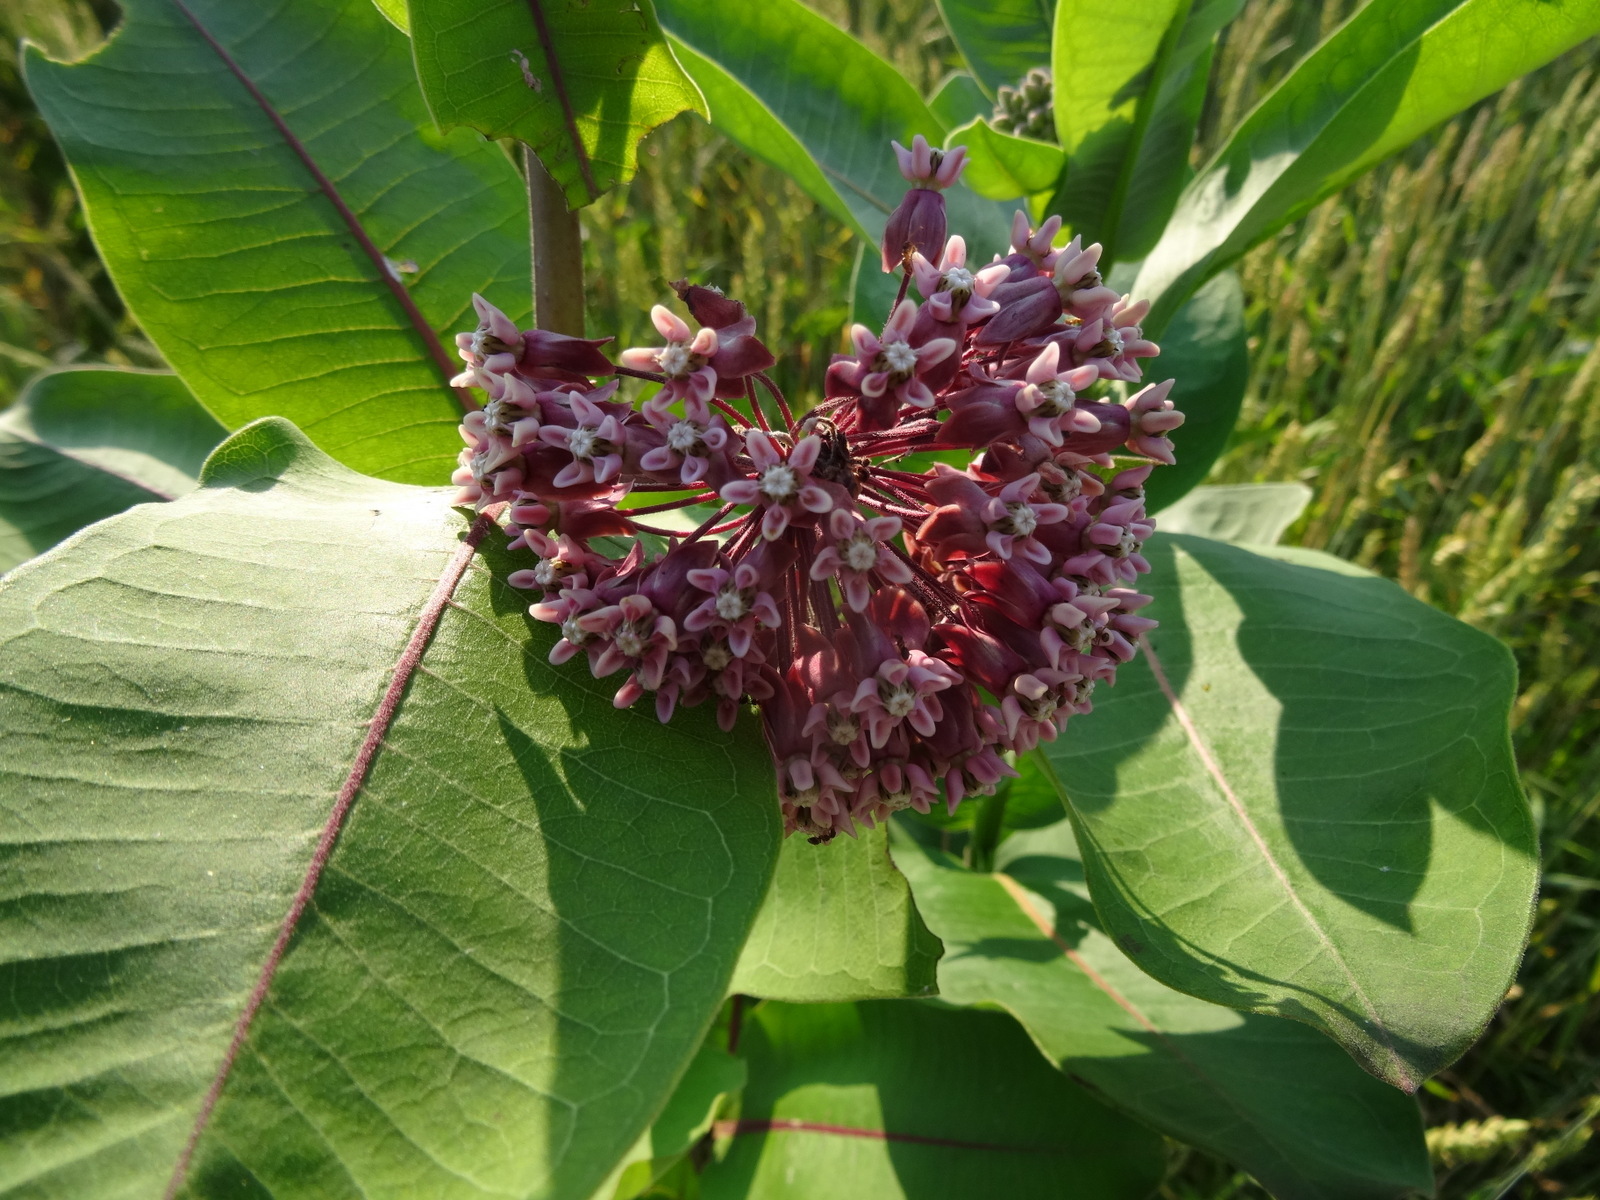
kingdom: Plantae
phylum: Tracheophyta
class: Magnoliopsida
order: Gentianales
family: Apocynaceae
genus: Asclepias
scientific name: Asclepias syriaca
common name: Common milkweed
